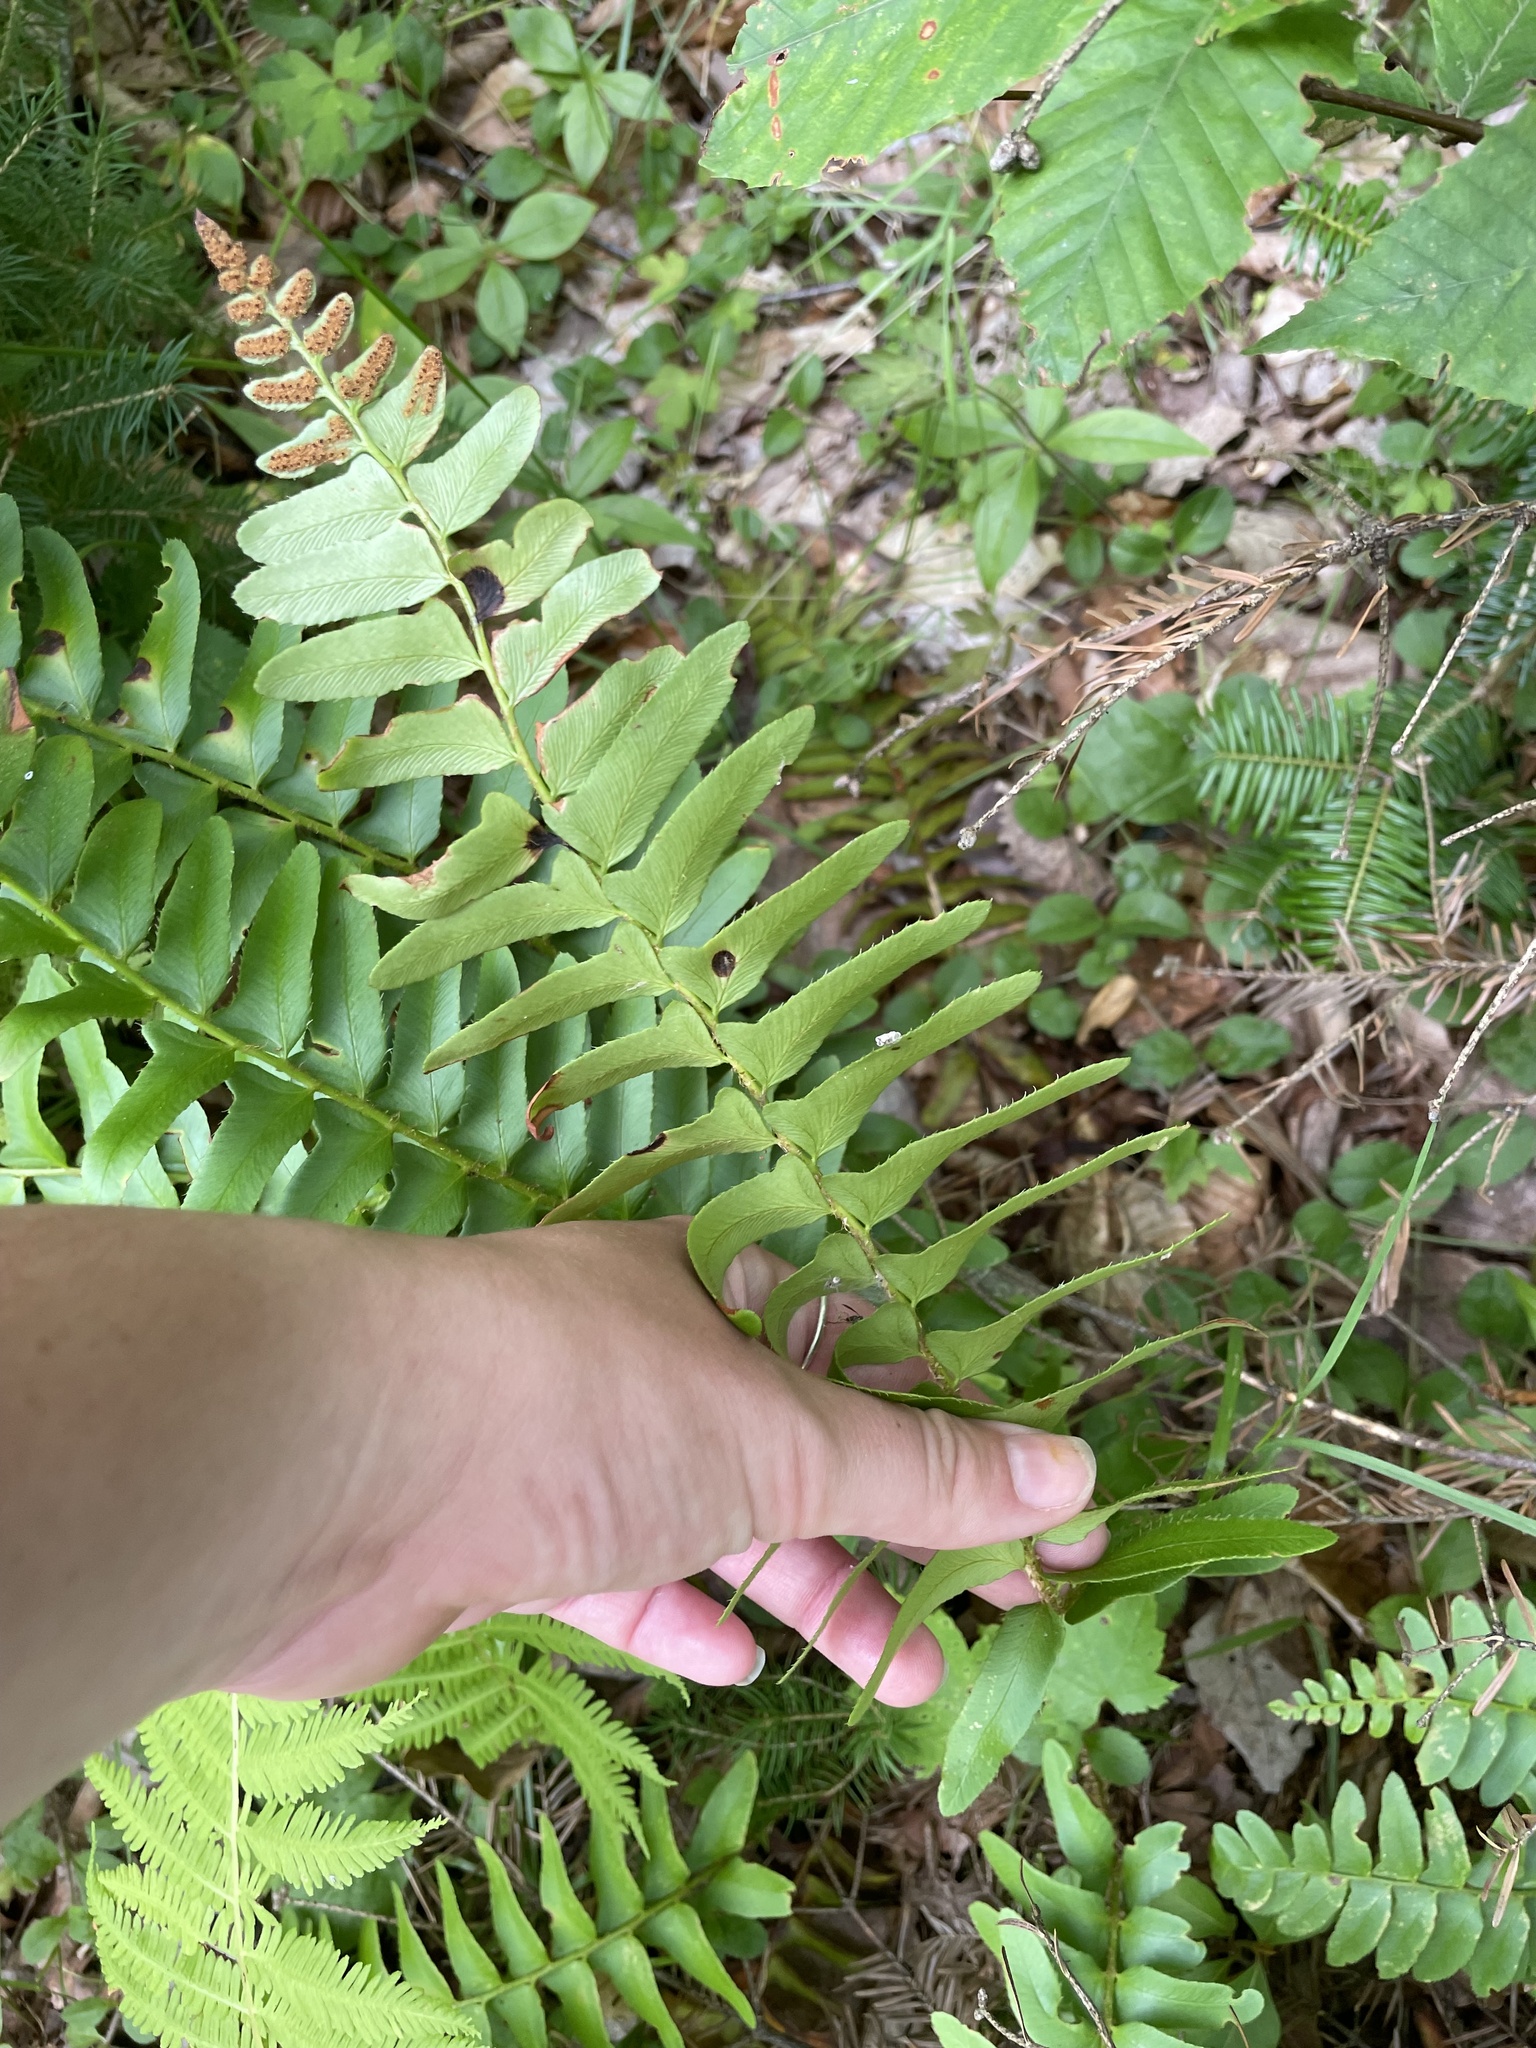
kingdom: Plantae
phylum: Tracheophyta
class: Polypodiopsida
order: Polypodiales
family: Dryopteridaceae
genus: Polystichum
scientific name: Polystichum acrostichoides
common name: Christmas fern
